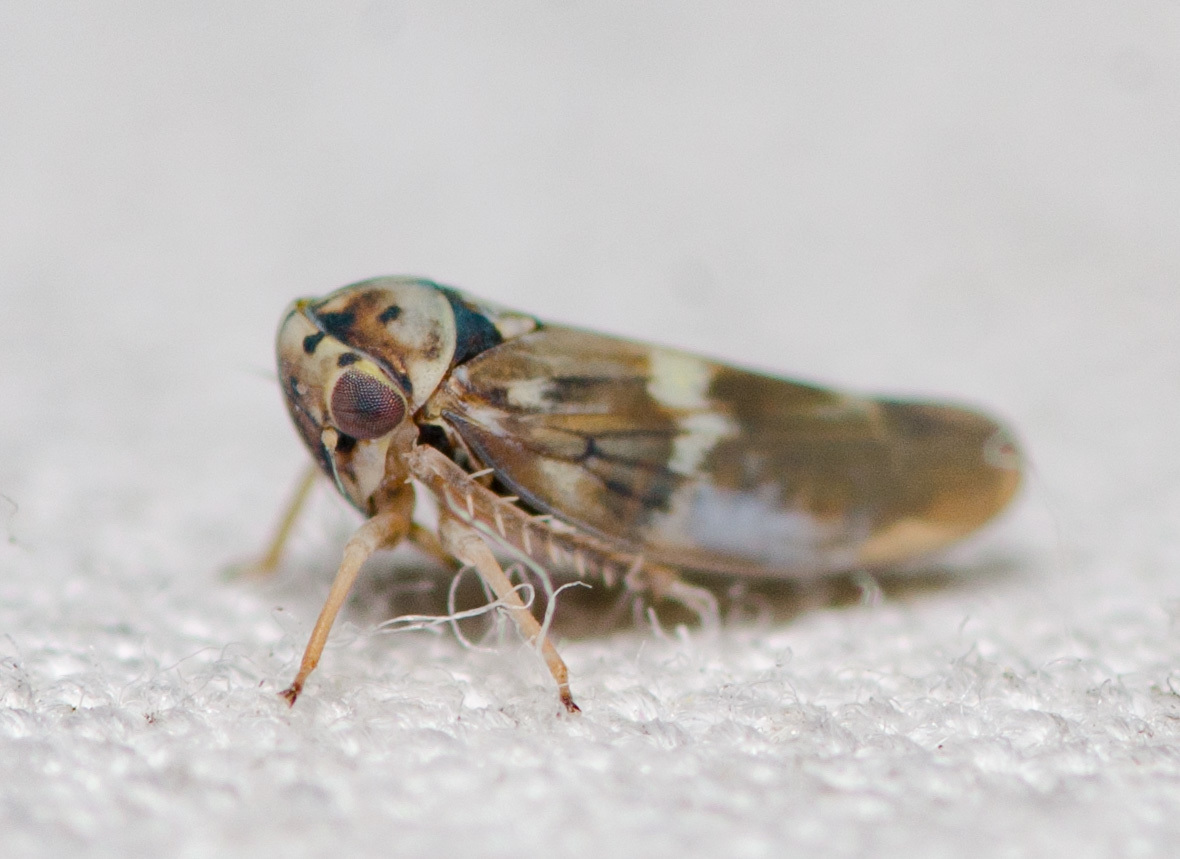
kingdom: Animalia
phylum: Arthropoda
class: Insecta
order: Hemiptera
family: Cicadellidae
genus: Agalliopsis
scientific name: Agalliopsis cervina
